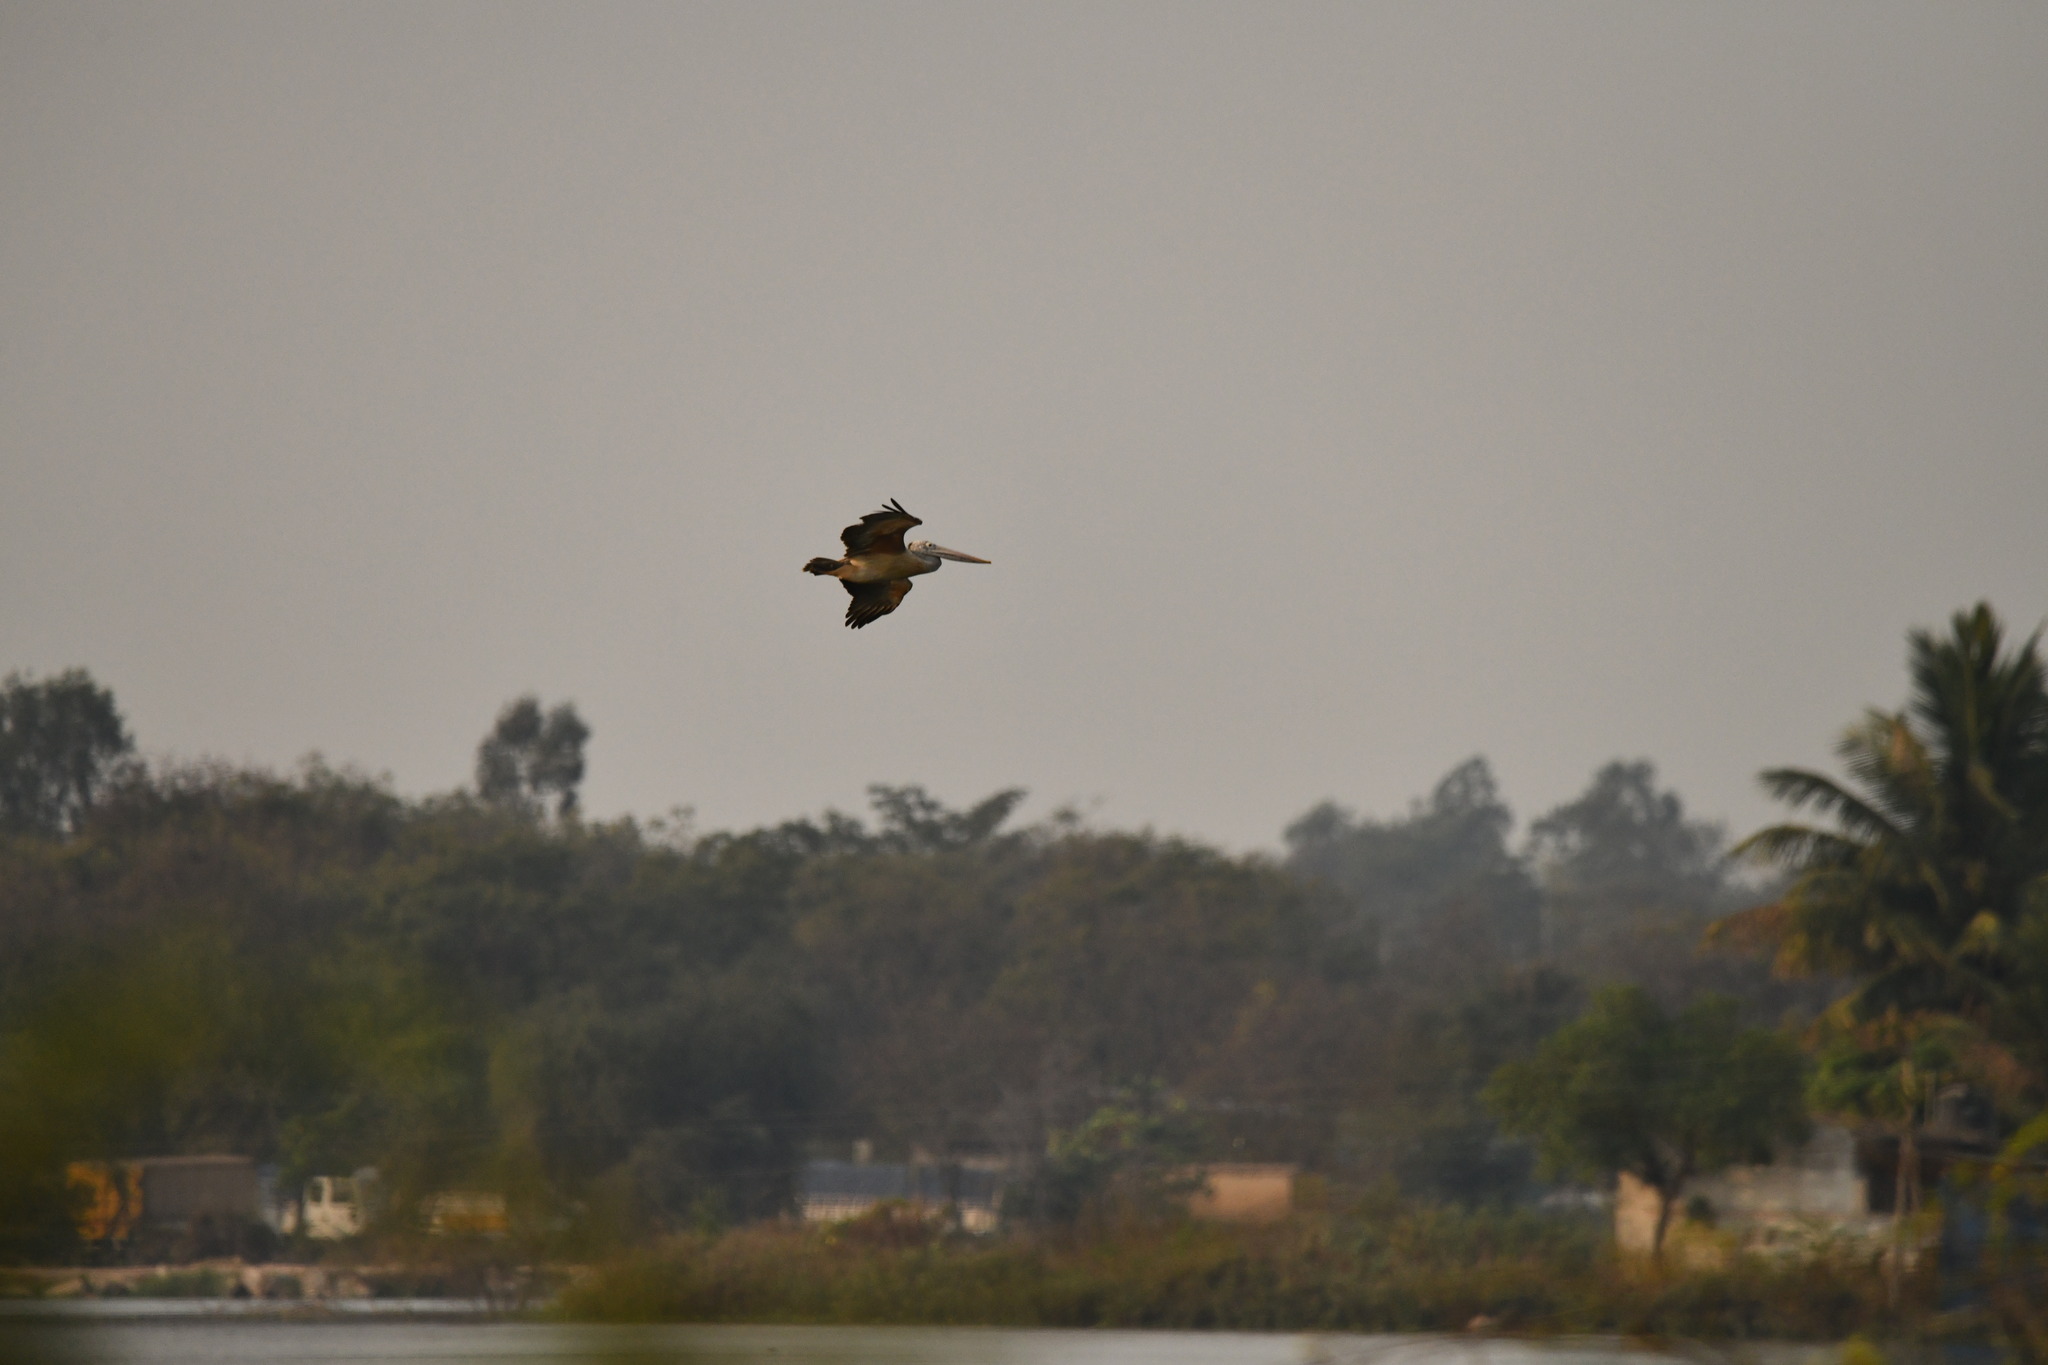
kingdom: Animalia
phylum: Chordata
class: Aves
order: Pelecaniformes
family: Pelecanidae
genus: Pelecanus
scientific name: Pelecanus philippensis
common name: Spot-billed pelican
